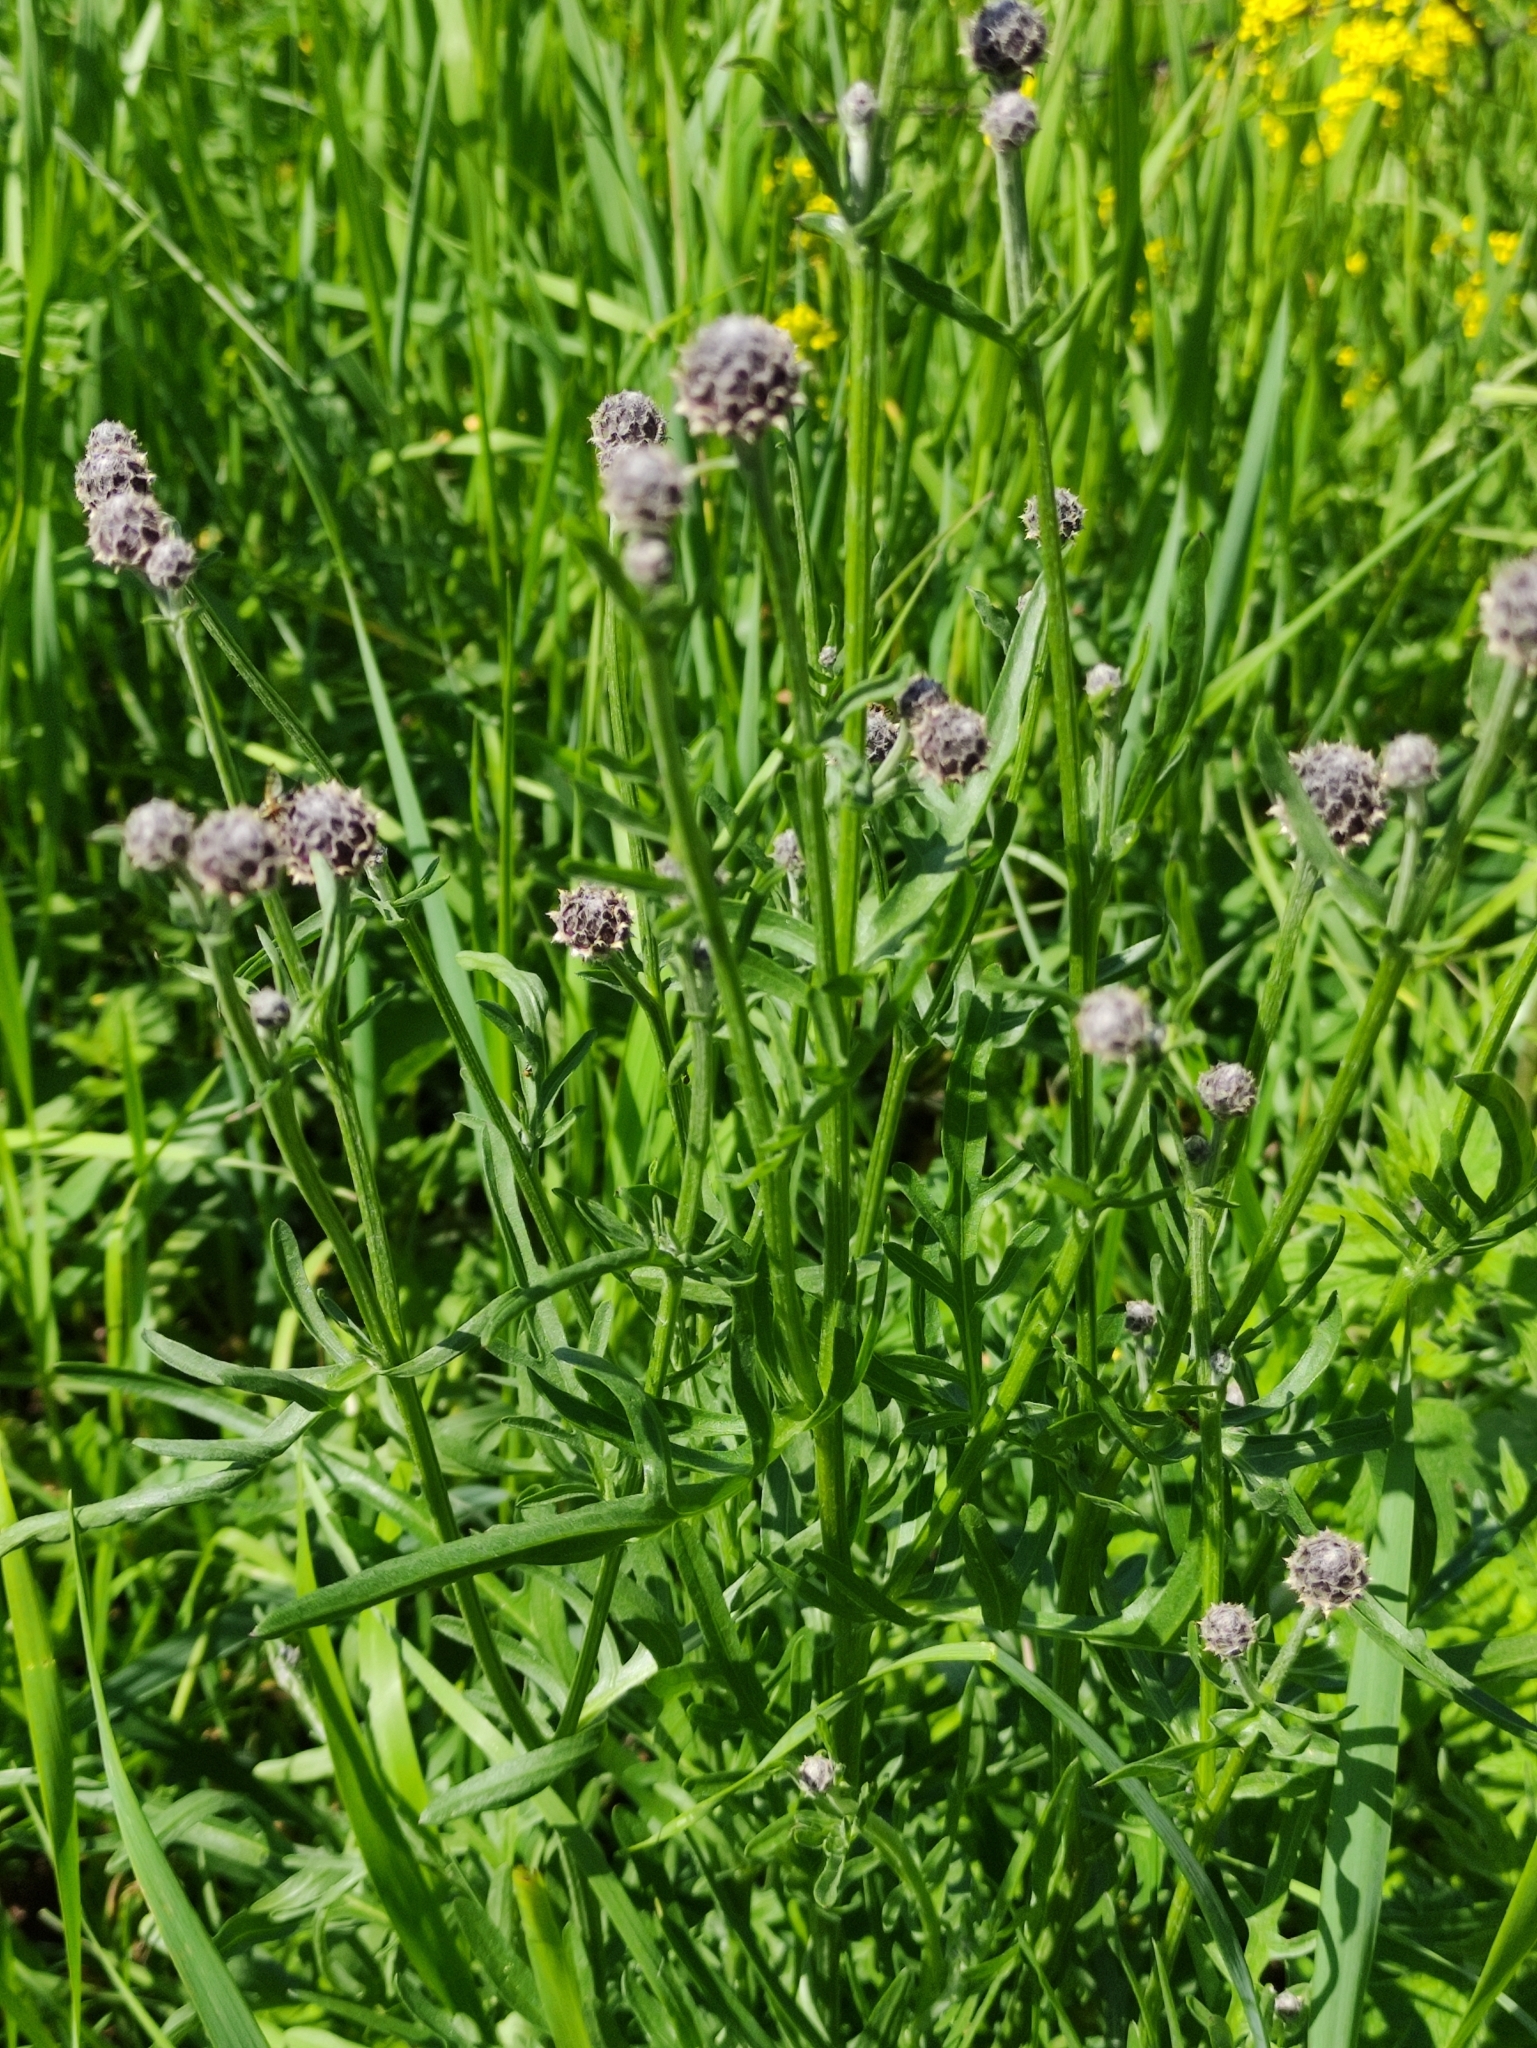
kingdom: Plantae
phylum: Tracheophyta
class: Magnoliopsida
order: Asterales
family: Asteraceae
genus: Centaurea
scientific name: Centaurea scabiosa
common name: Greater knapweed
